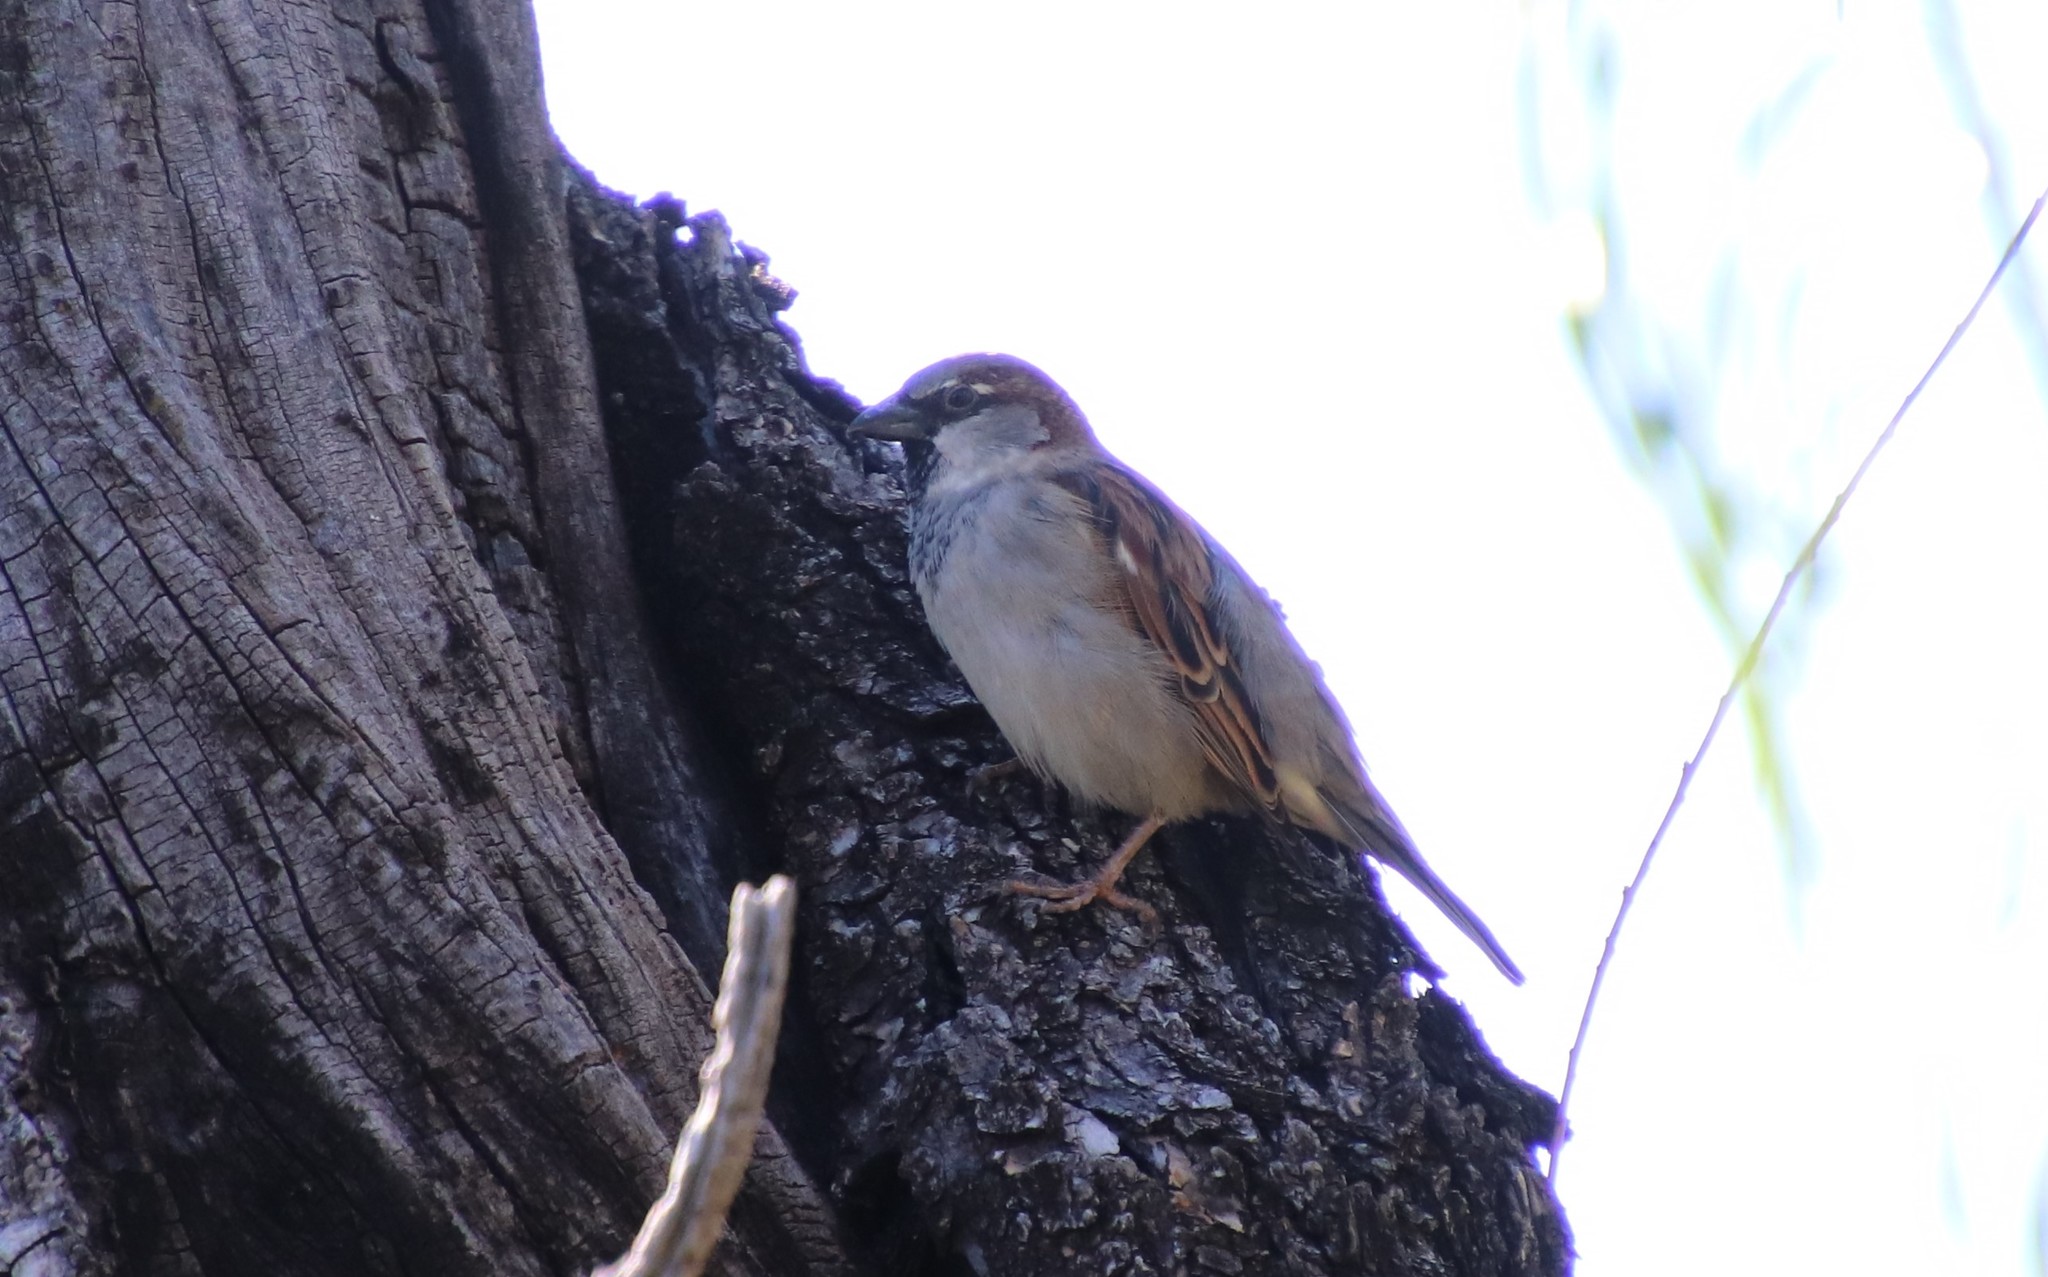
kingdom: Animalia
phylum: Chordata
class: Aves
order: Passeriformes
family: Passeridae
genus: Passer
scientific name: Passer domesticus
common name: House sparrow
